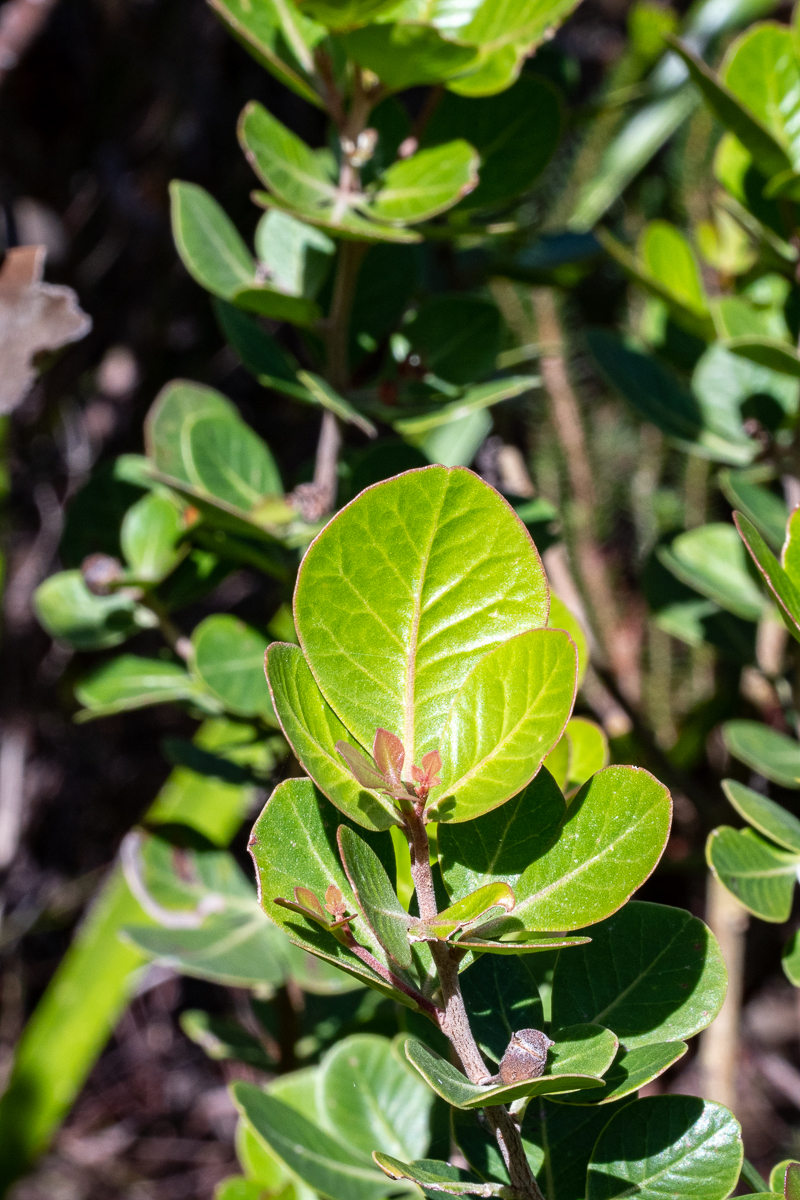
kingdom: Plantae
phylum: Tracheophyta
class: Magnoliopsida
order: Sapindales
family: Anacardiaceae
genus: Searsia
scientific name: Searsia lucida
